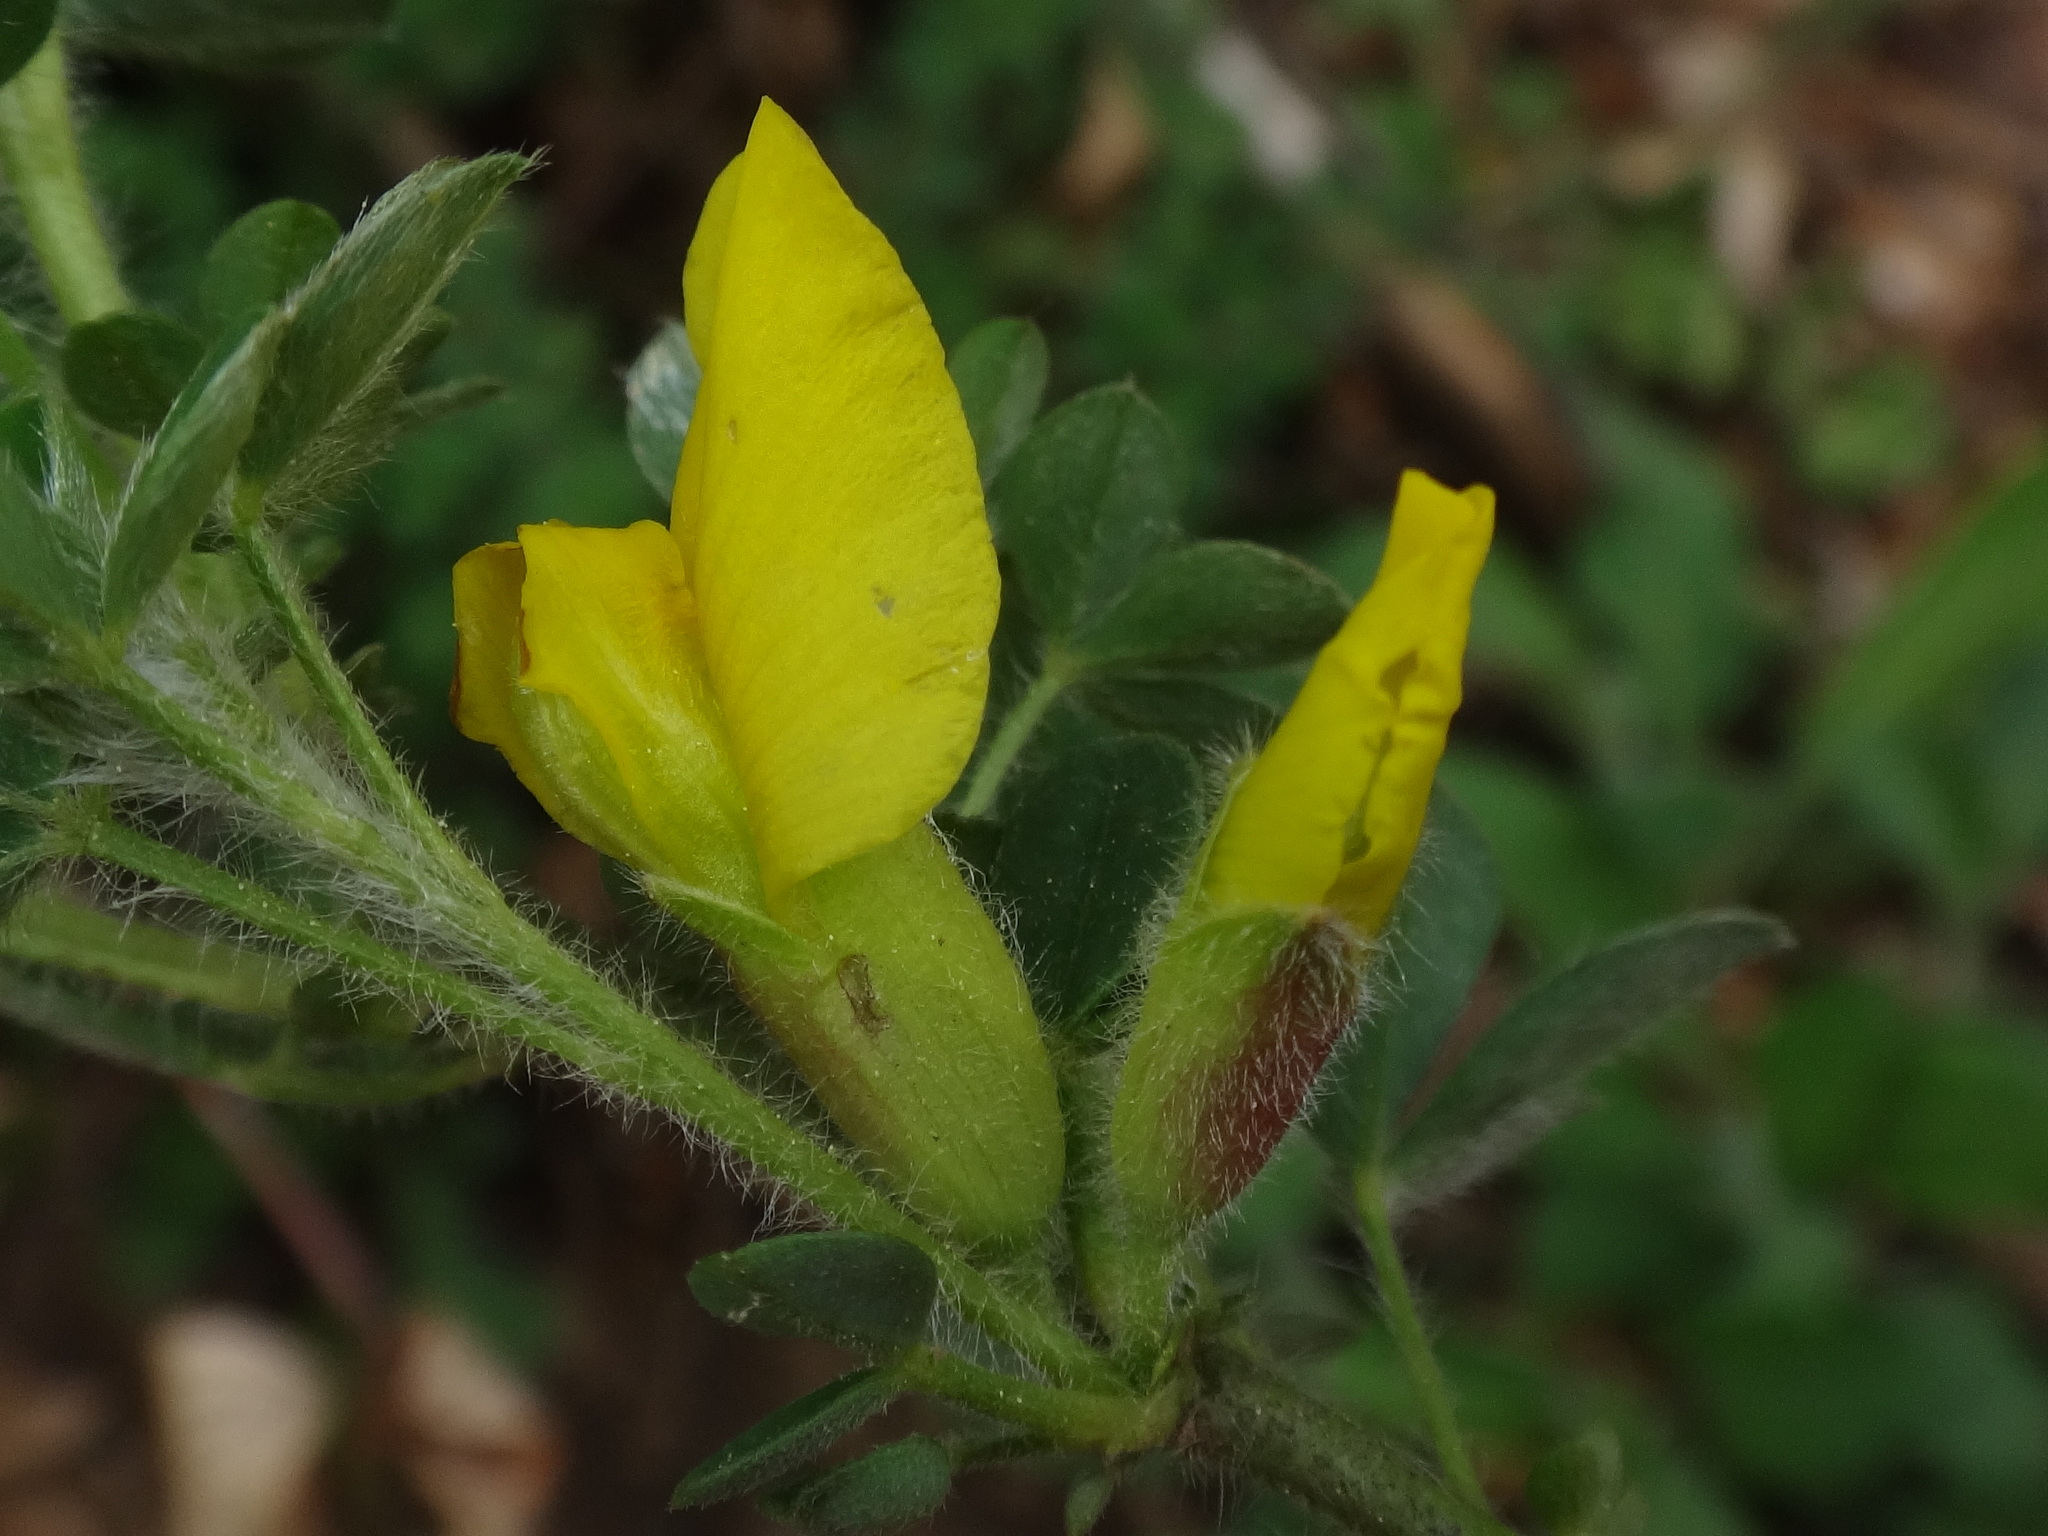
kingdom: Plantae
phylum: Tracheophyta
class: Magnoliopsida
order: Fabales
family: Fabaceae
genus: Chamaecytisus
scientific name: Chamaecytisus hirsutus
